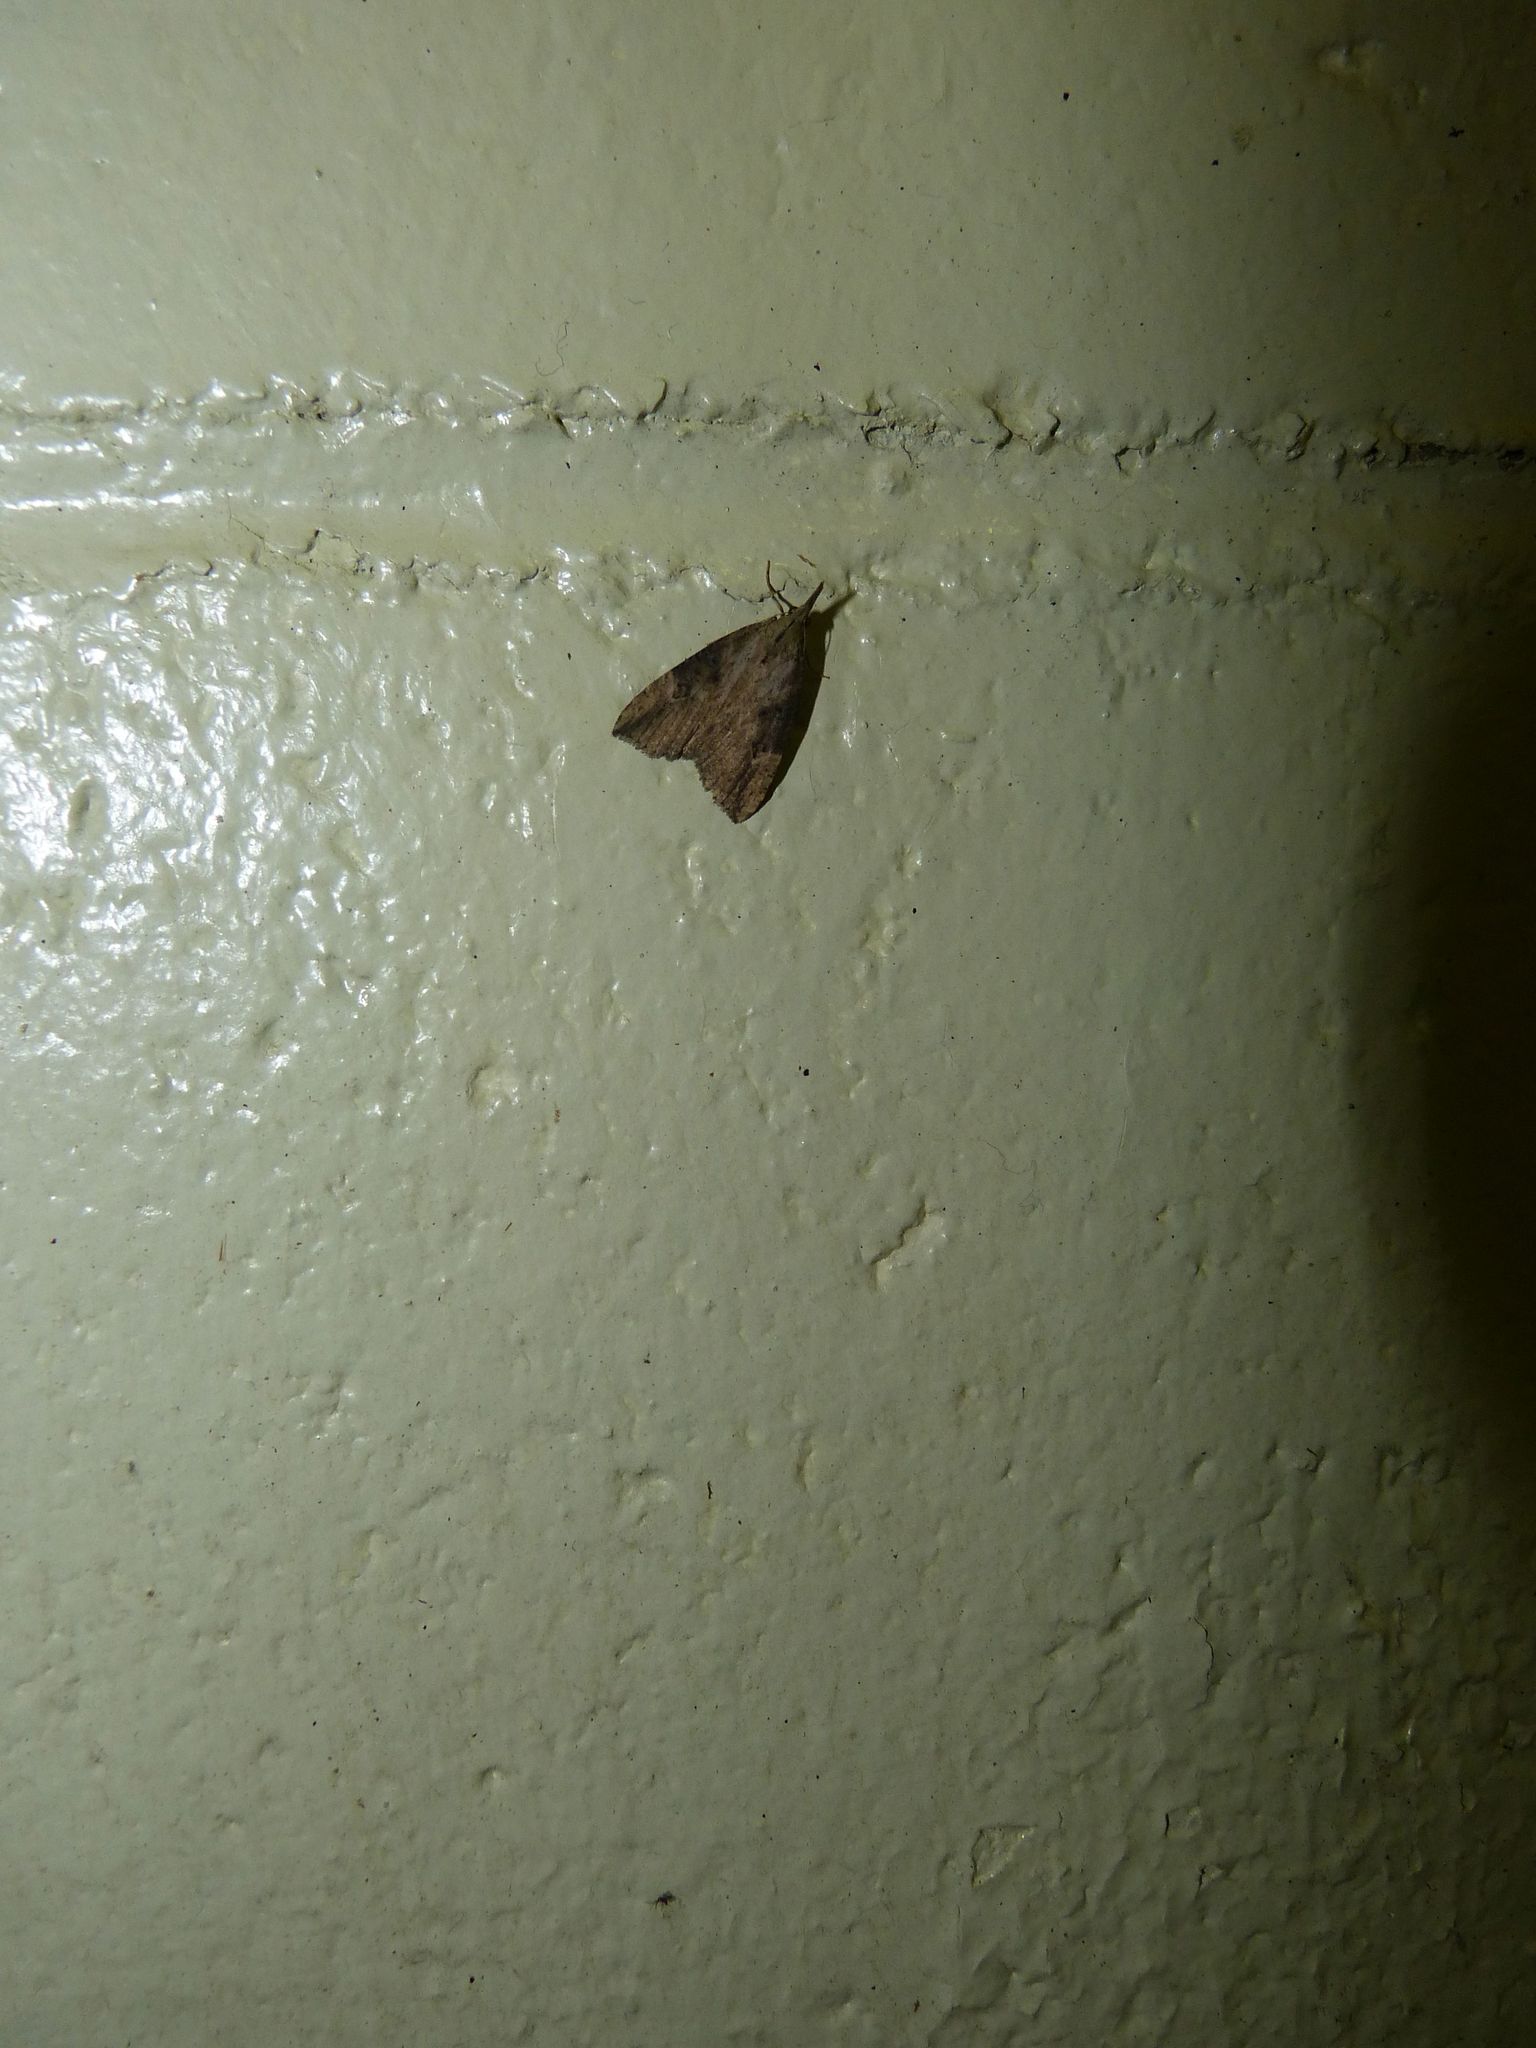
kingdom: Animalia
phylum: Arthropoda
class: Insecta
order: Lepidoptera
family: Erebidae
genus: Hypena
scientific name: Hypena humuli
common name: Hop vine snout
